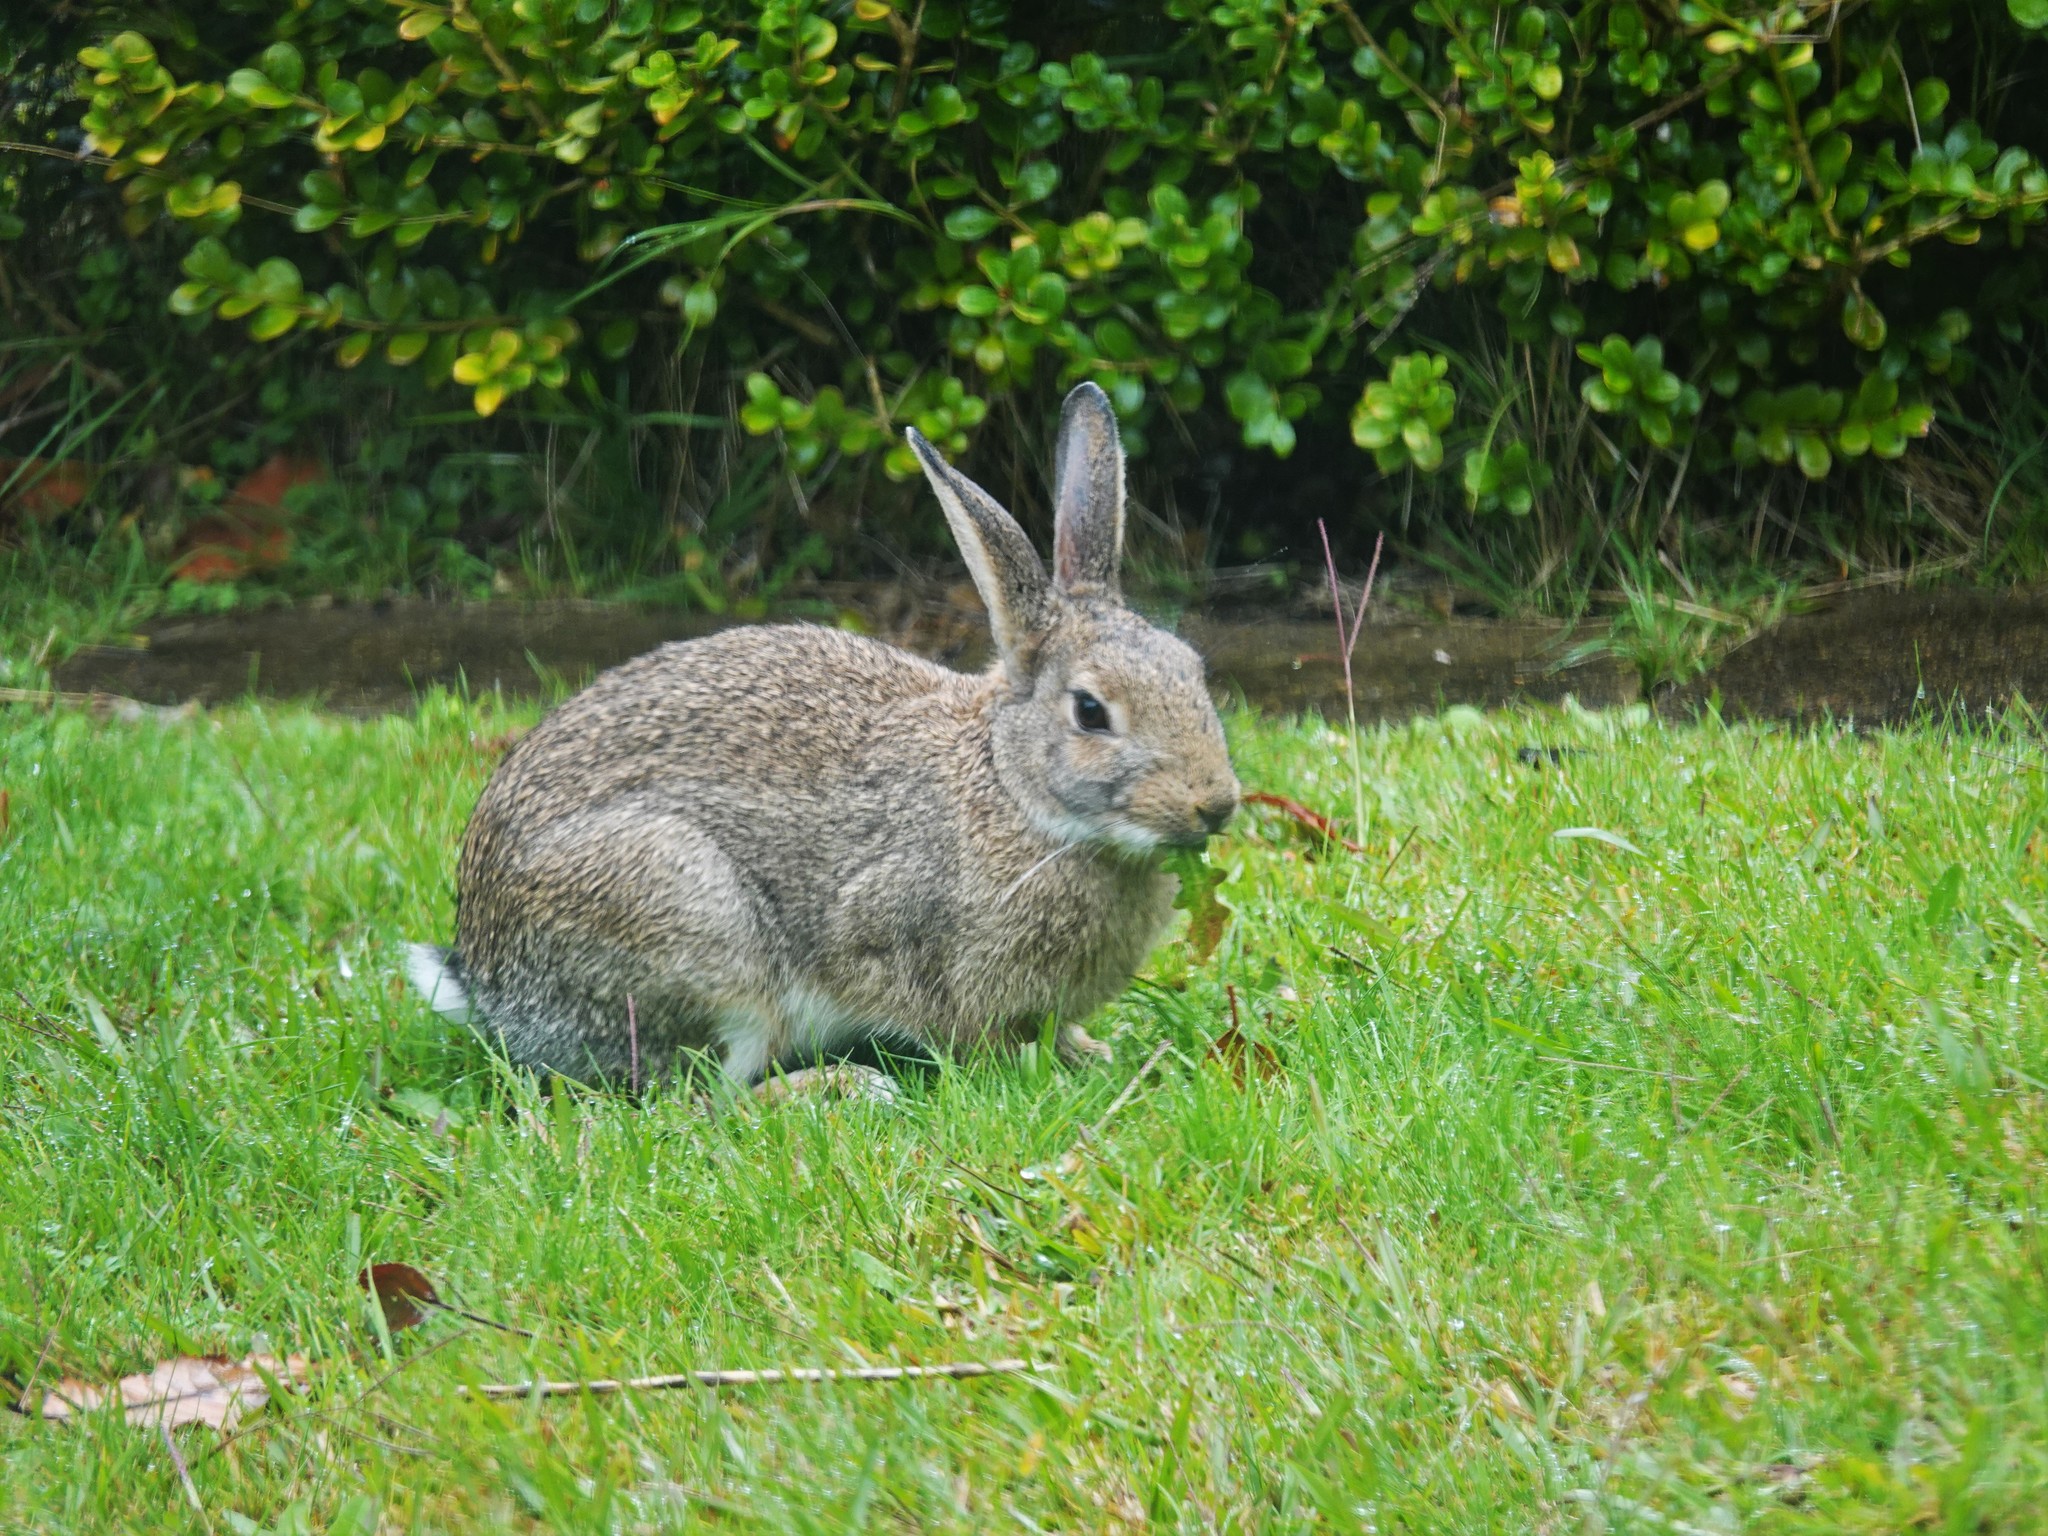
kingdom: Animalia
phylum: Chordata
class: Mammalia
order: Lagomorpha
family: Leporidae
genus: Oryctolagus
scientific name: Oryctolagus cuniculus
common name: European rabbit
